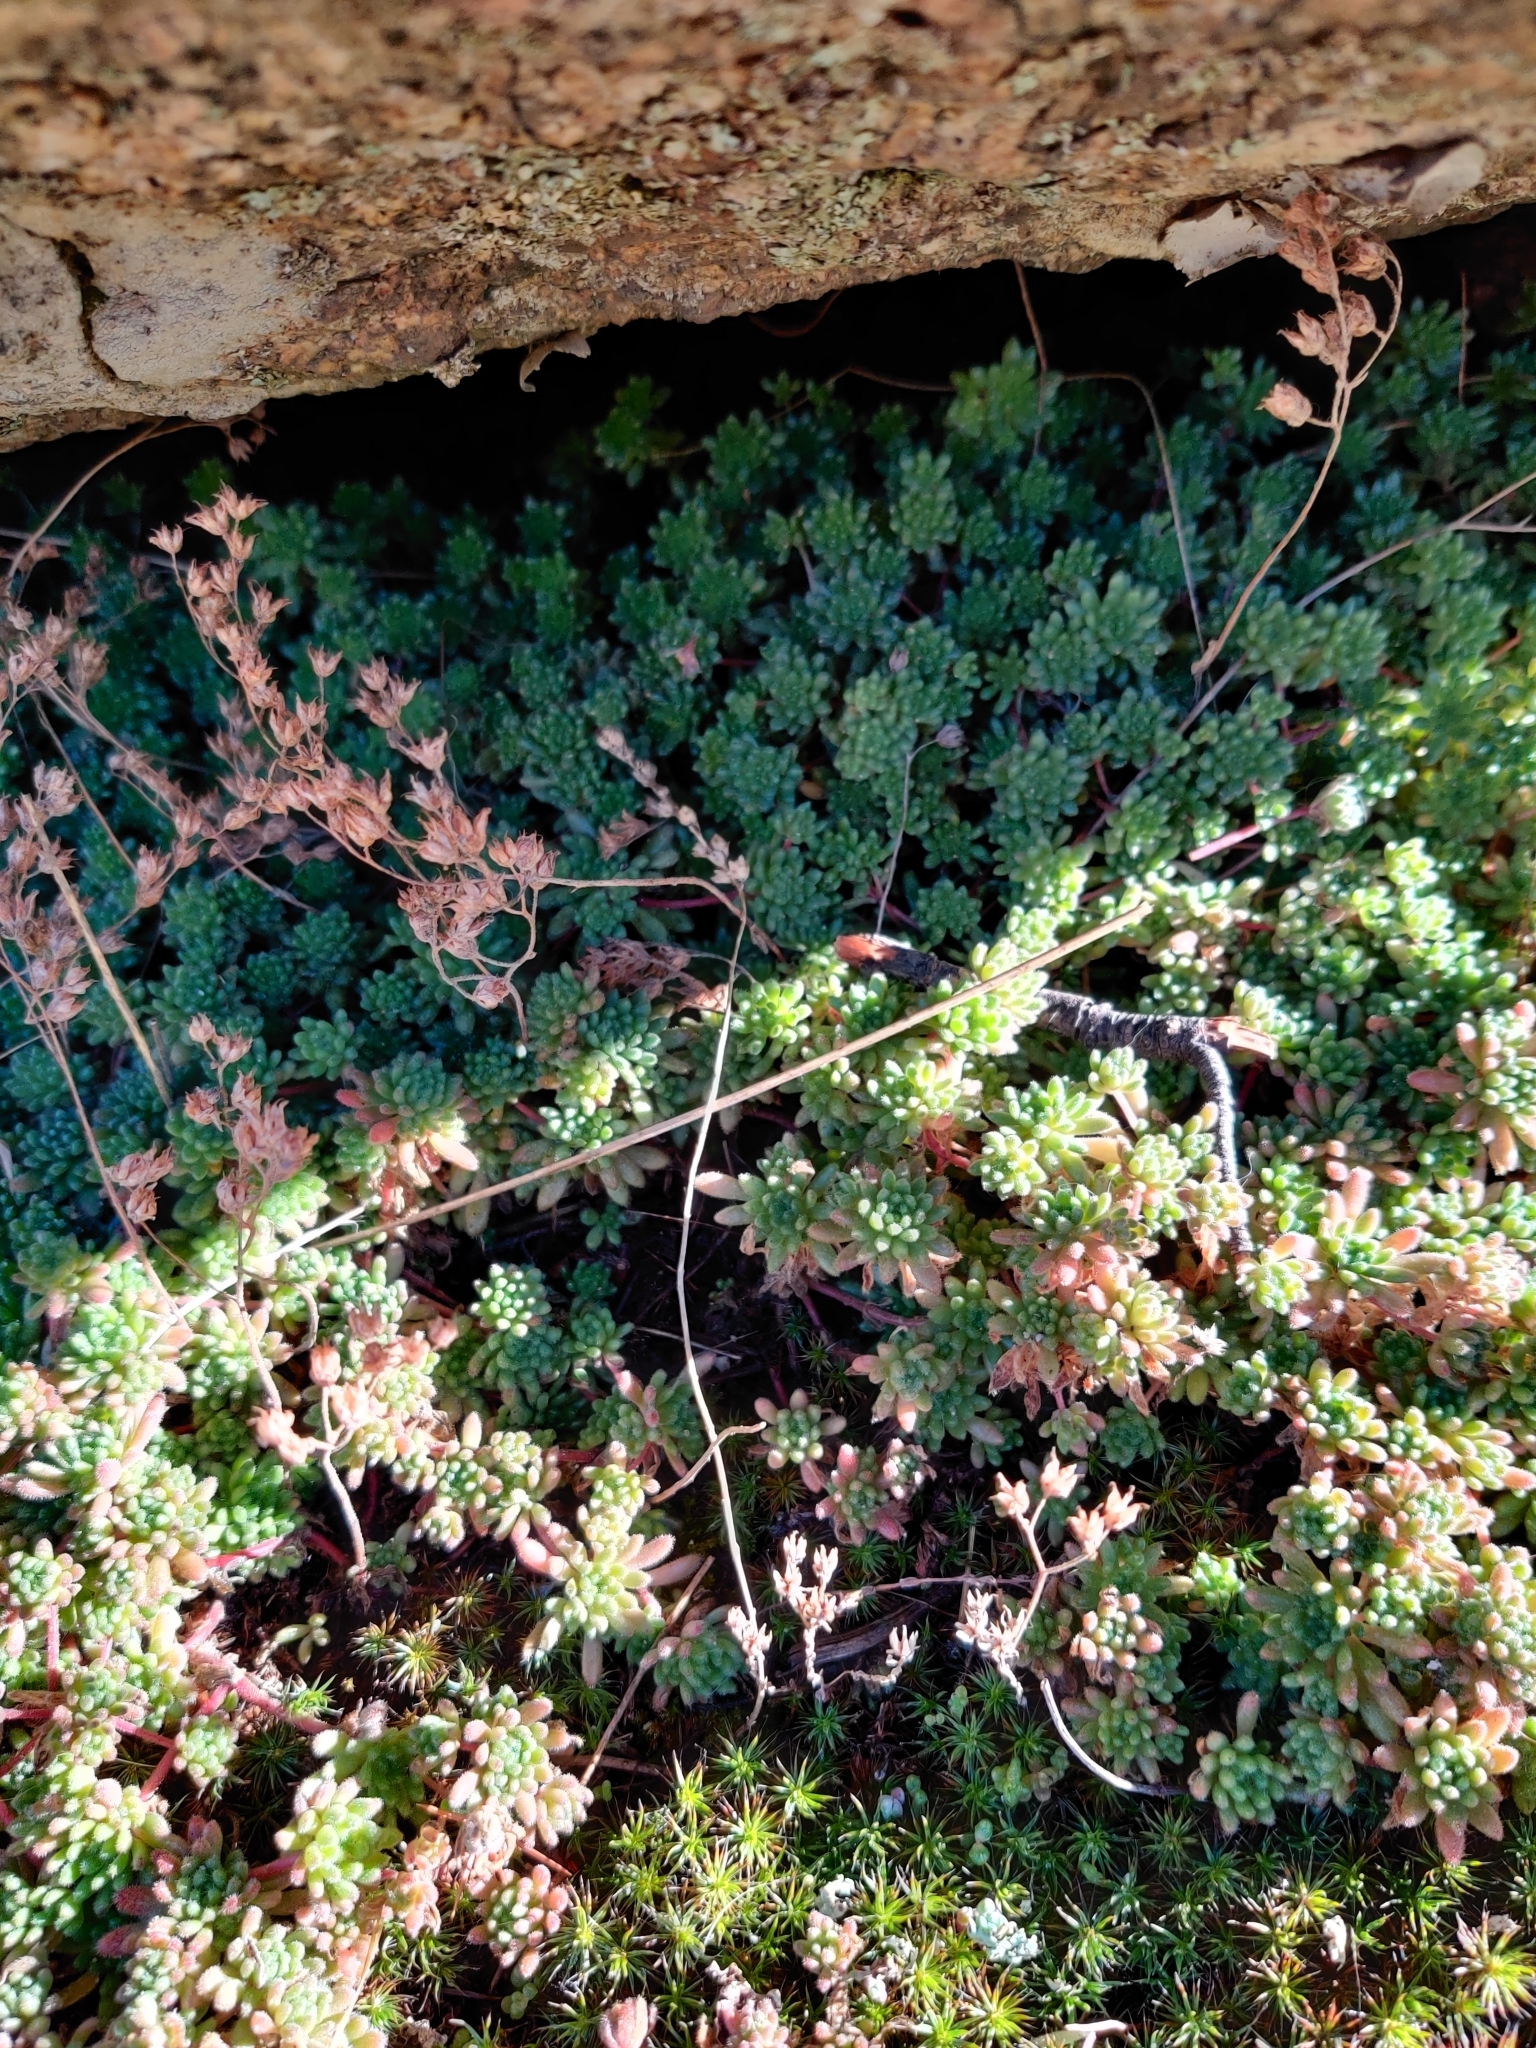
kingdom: Plantae
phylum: Tracheophyta
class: Magnoliopsida
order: Saxifragales
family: Crassulaceae
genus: Sedum
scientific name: Sedum hirsutum
